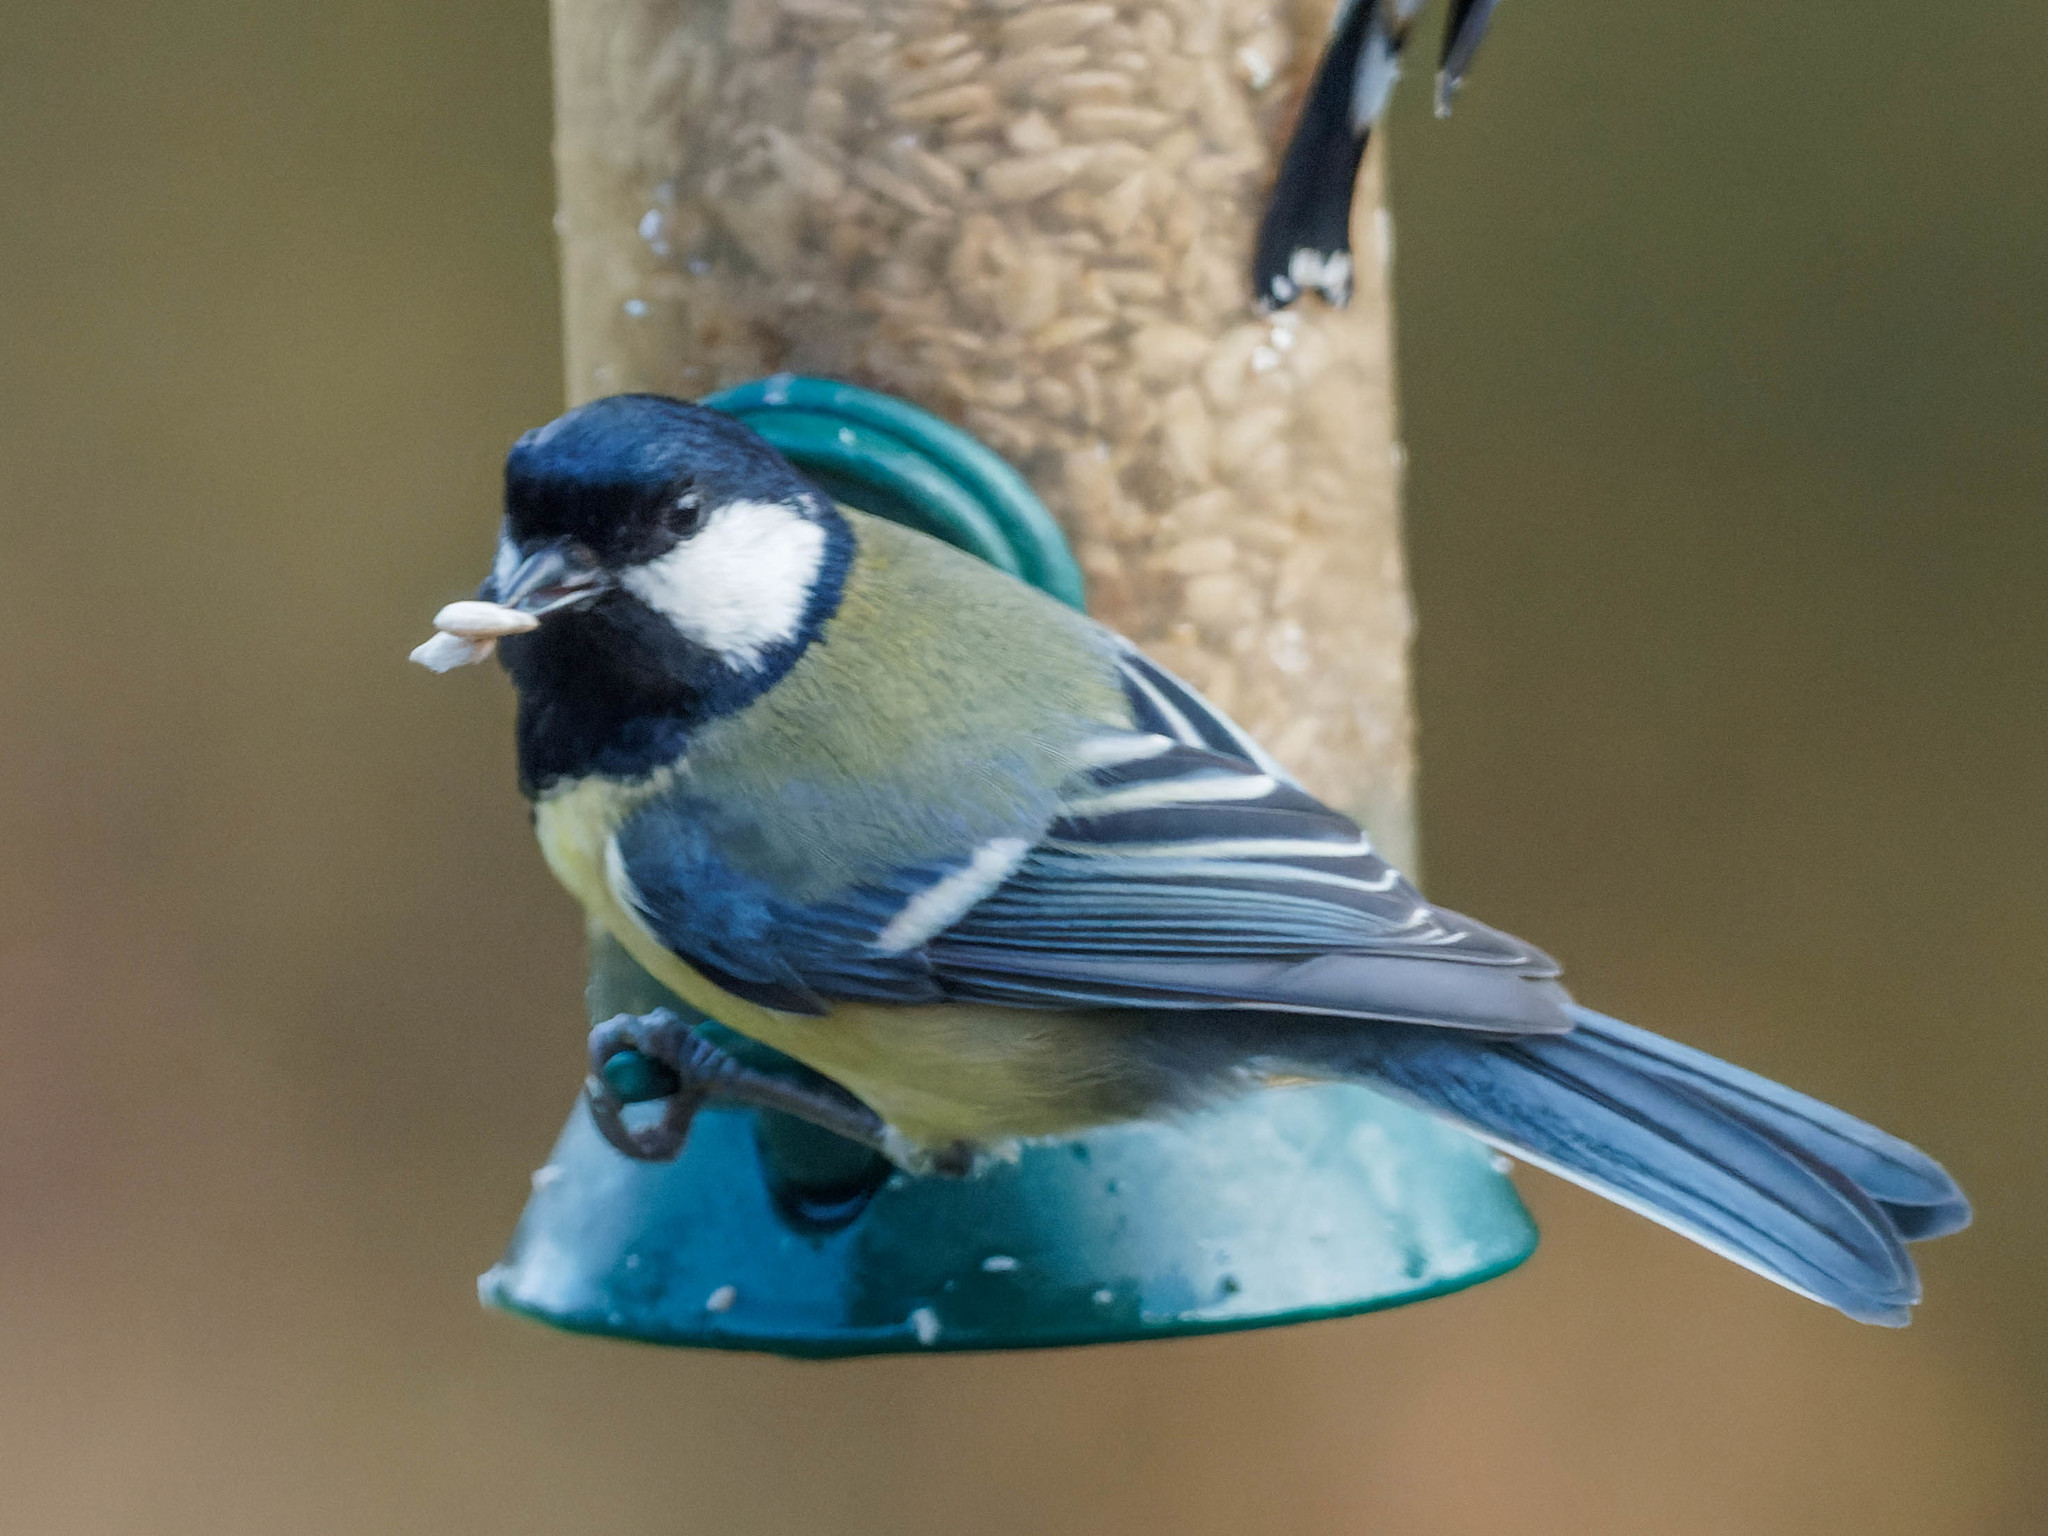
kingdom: Animalia
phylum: Chordata
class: Aves
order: Passeriformes
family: Paridae
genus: Parus
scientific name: Parus major
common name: Great tit
